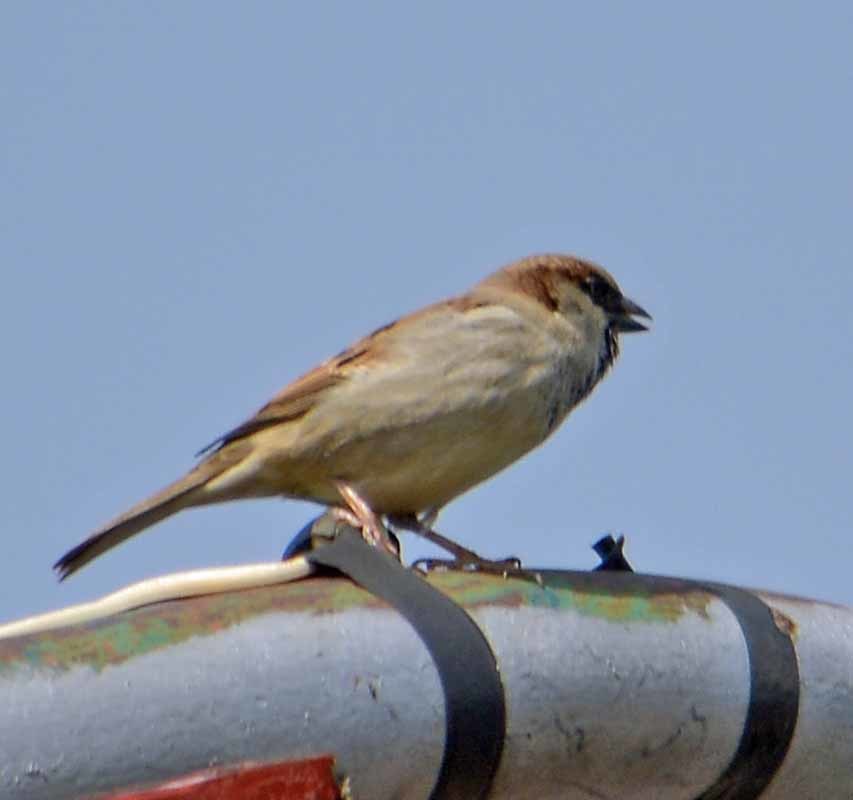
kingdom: Animalia
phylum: Chordata
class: Aves
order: Passeriformes
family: Passeridae
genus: Passer
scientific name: Passer domesticus
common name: House sparrow
